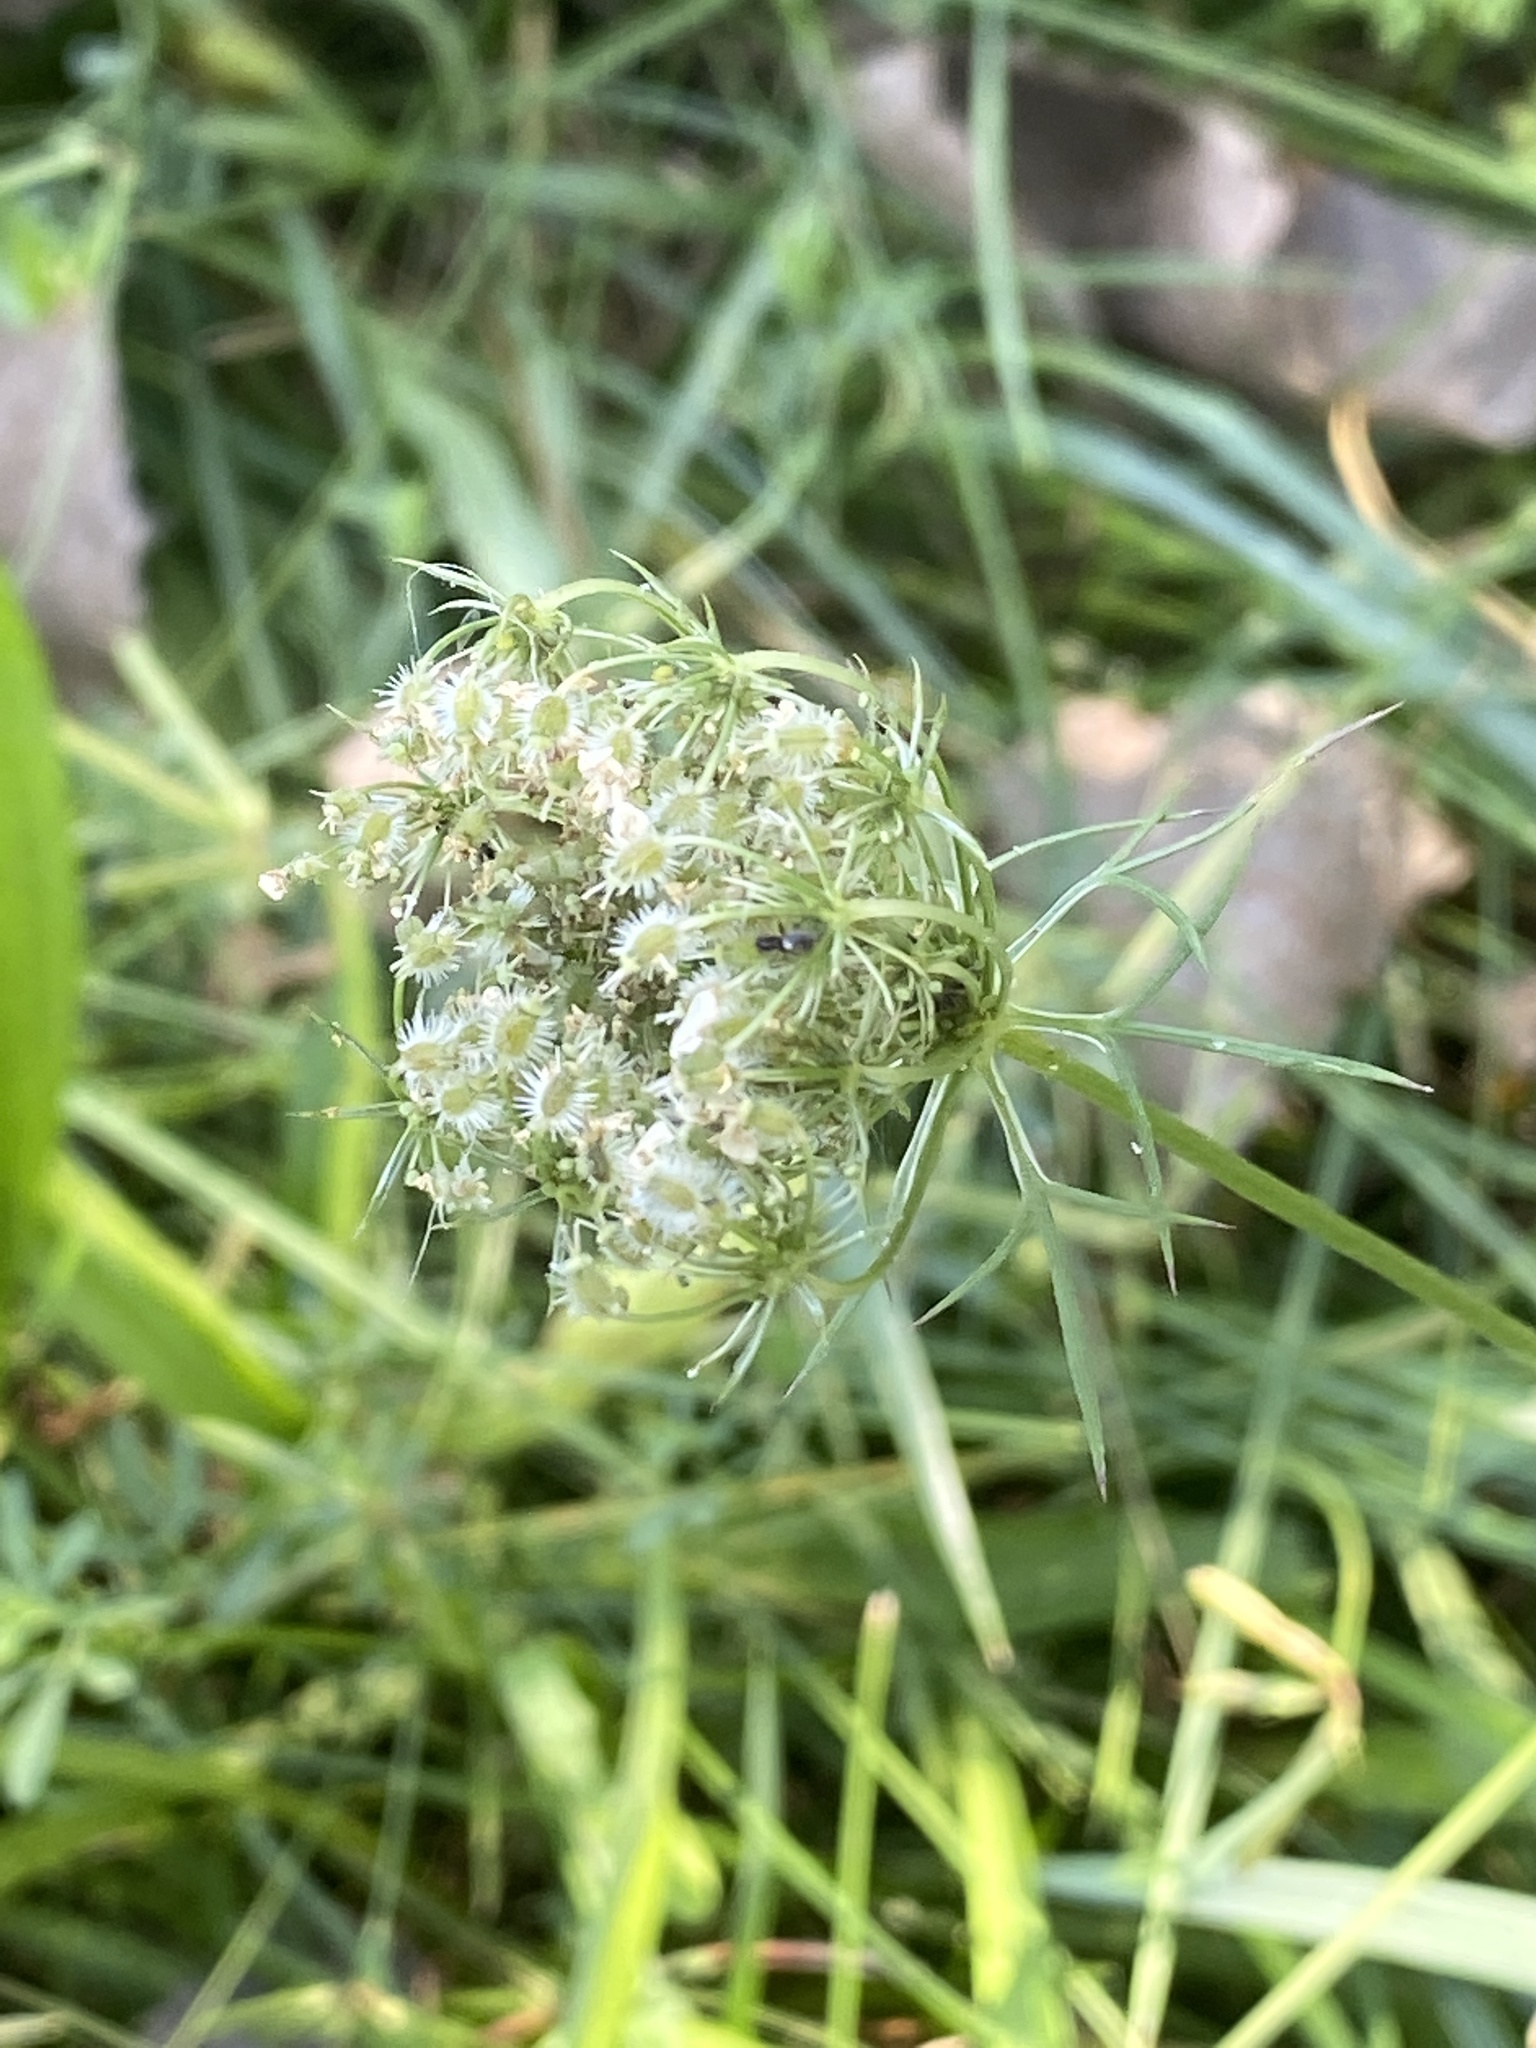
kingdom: Plantae
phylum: Tracheophyta
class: Magnoliopsida
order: Apiales
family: Apiaceae
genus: Daucus
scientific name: Daucus carota
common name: Wild carrot
